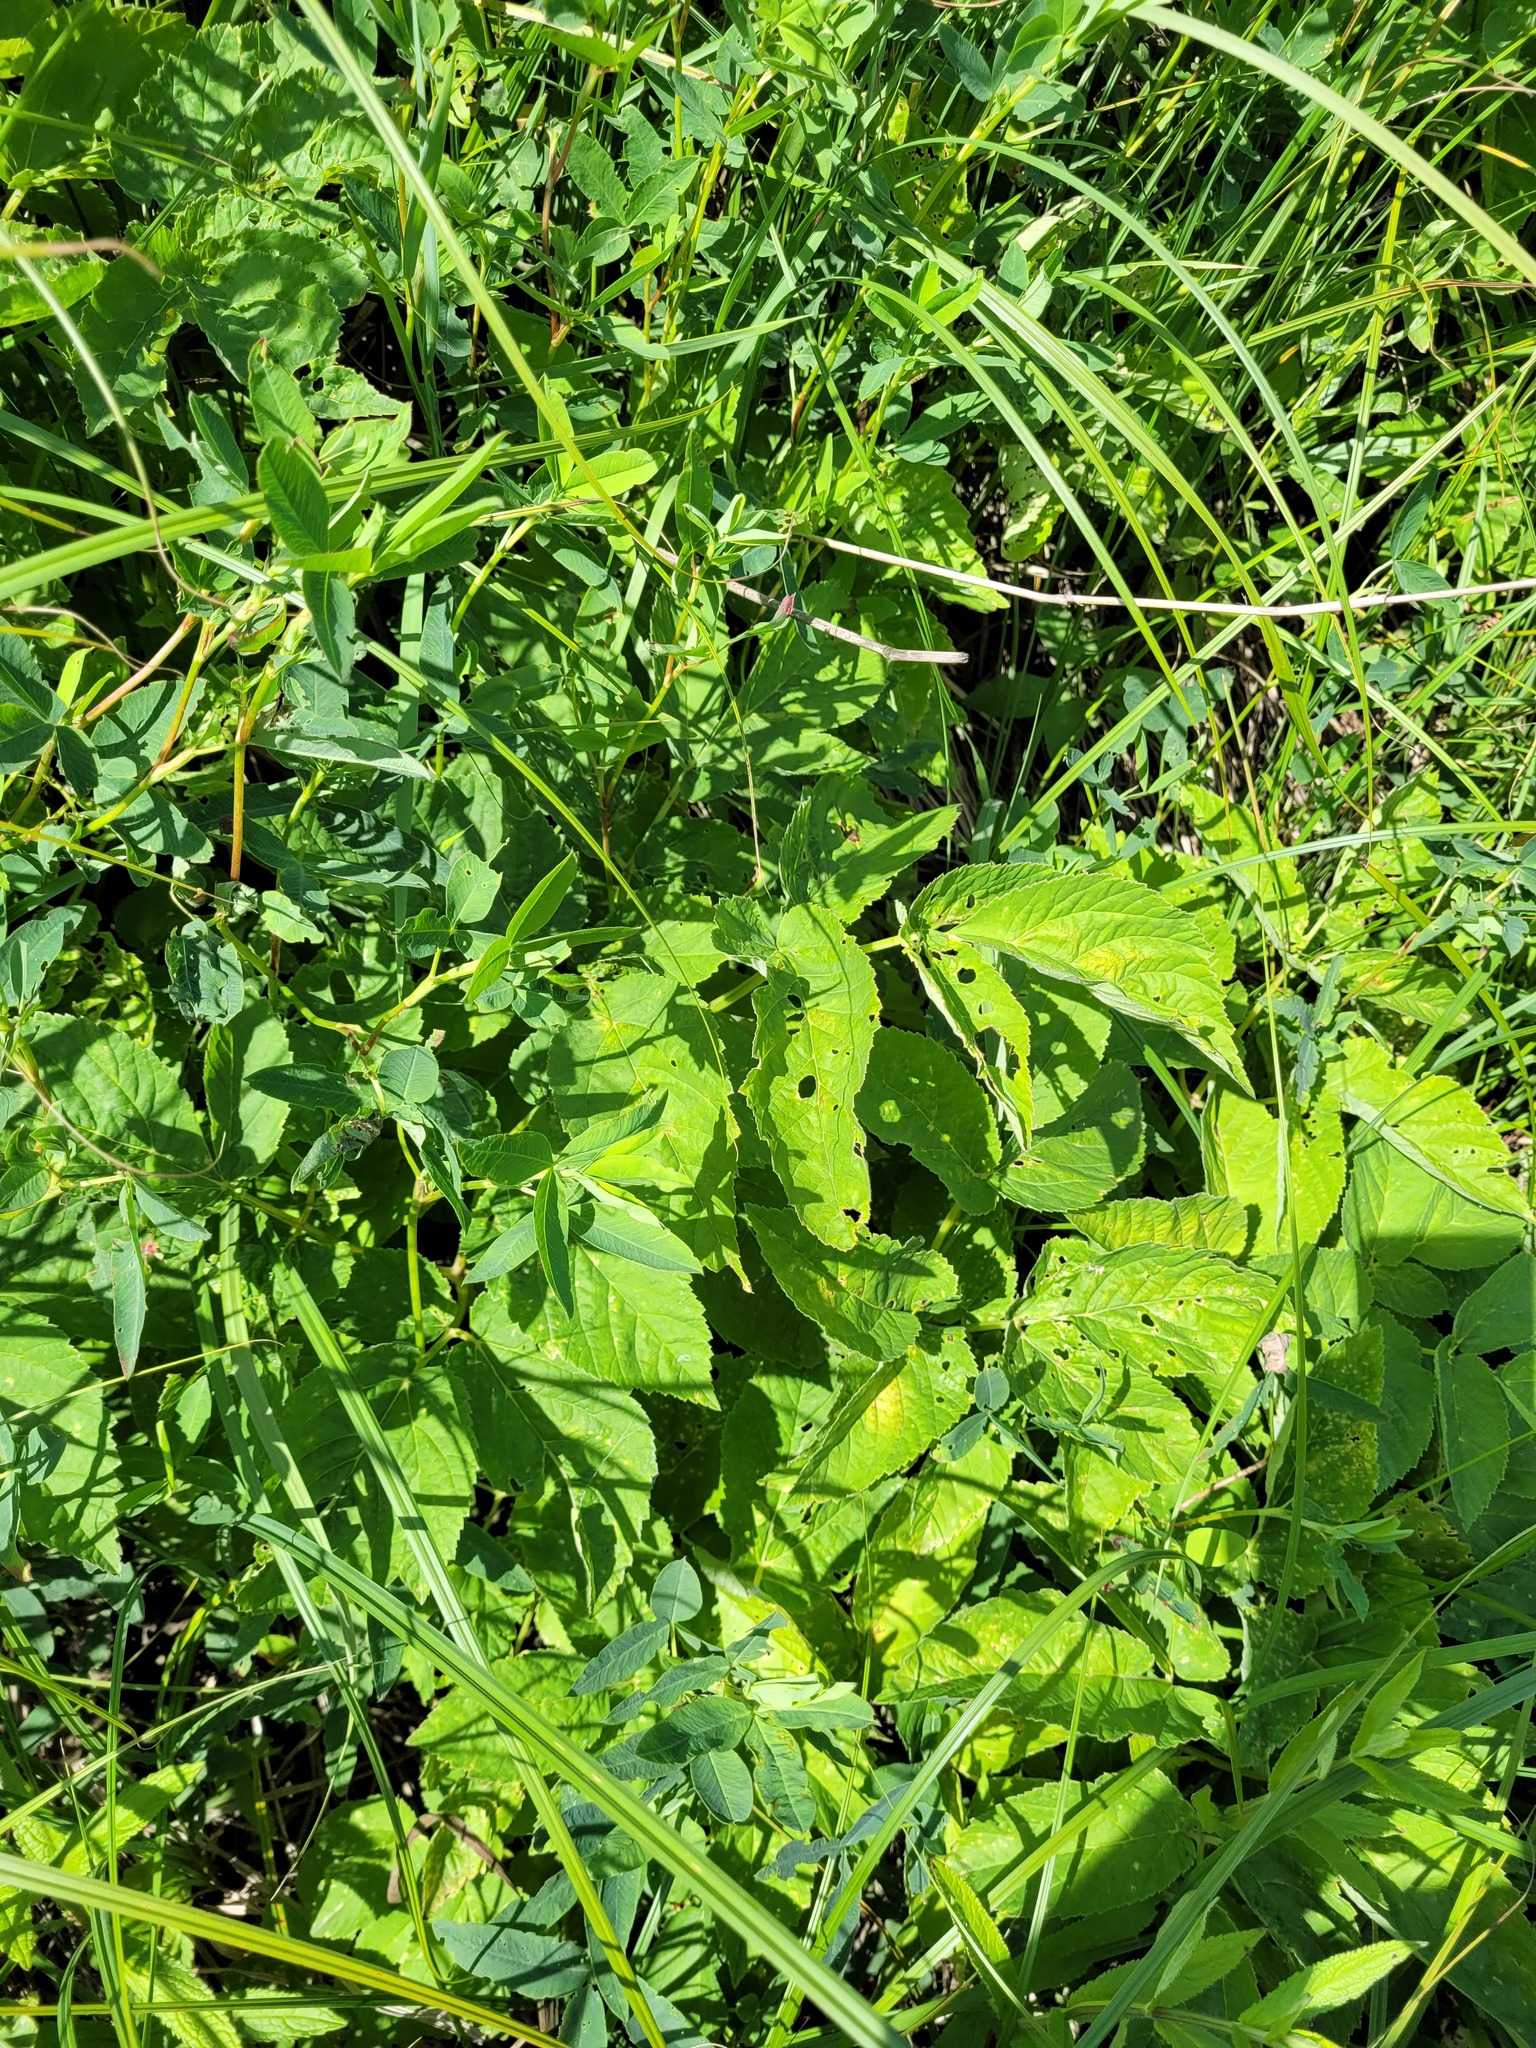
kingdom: Plantae
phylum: Tracheophyta
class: Magnoliopsida
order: Apiales
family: Apiaceae
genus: Aegopodium
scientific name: Aegopodium podagraria
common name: Ground-elder
